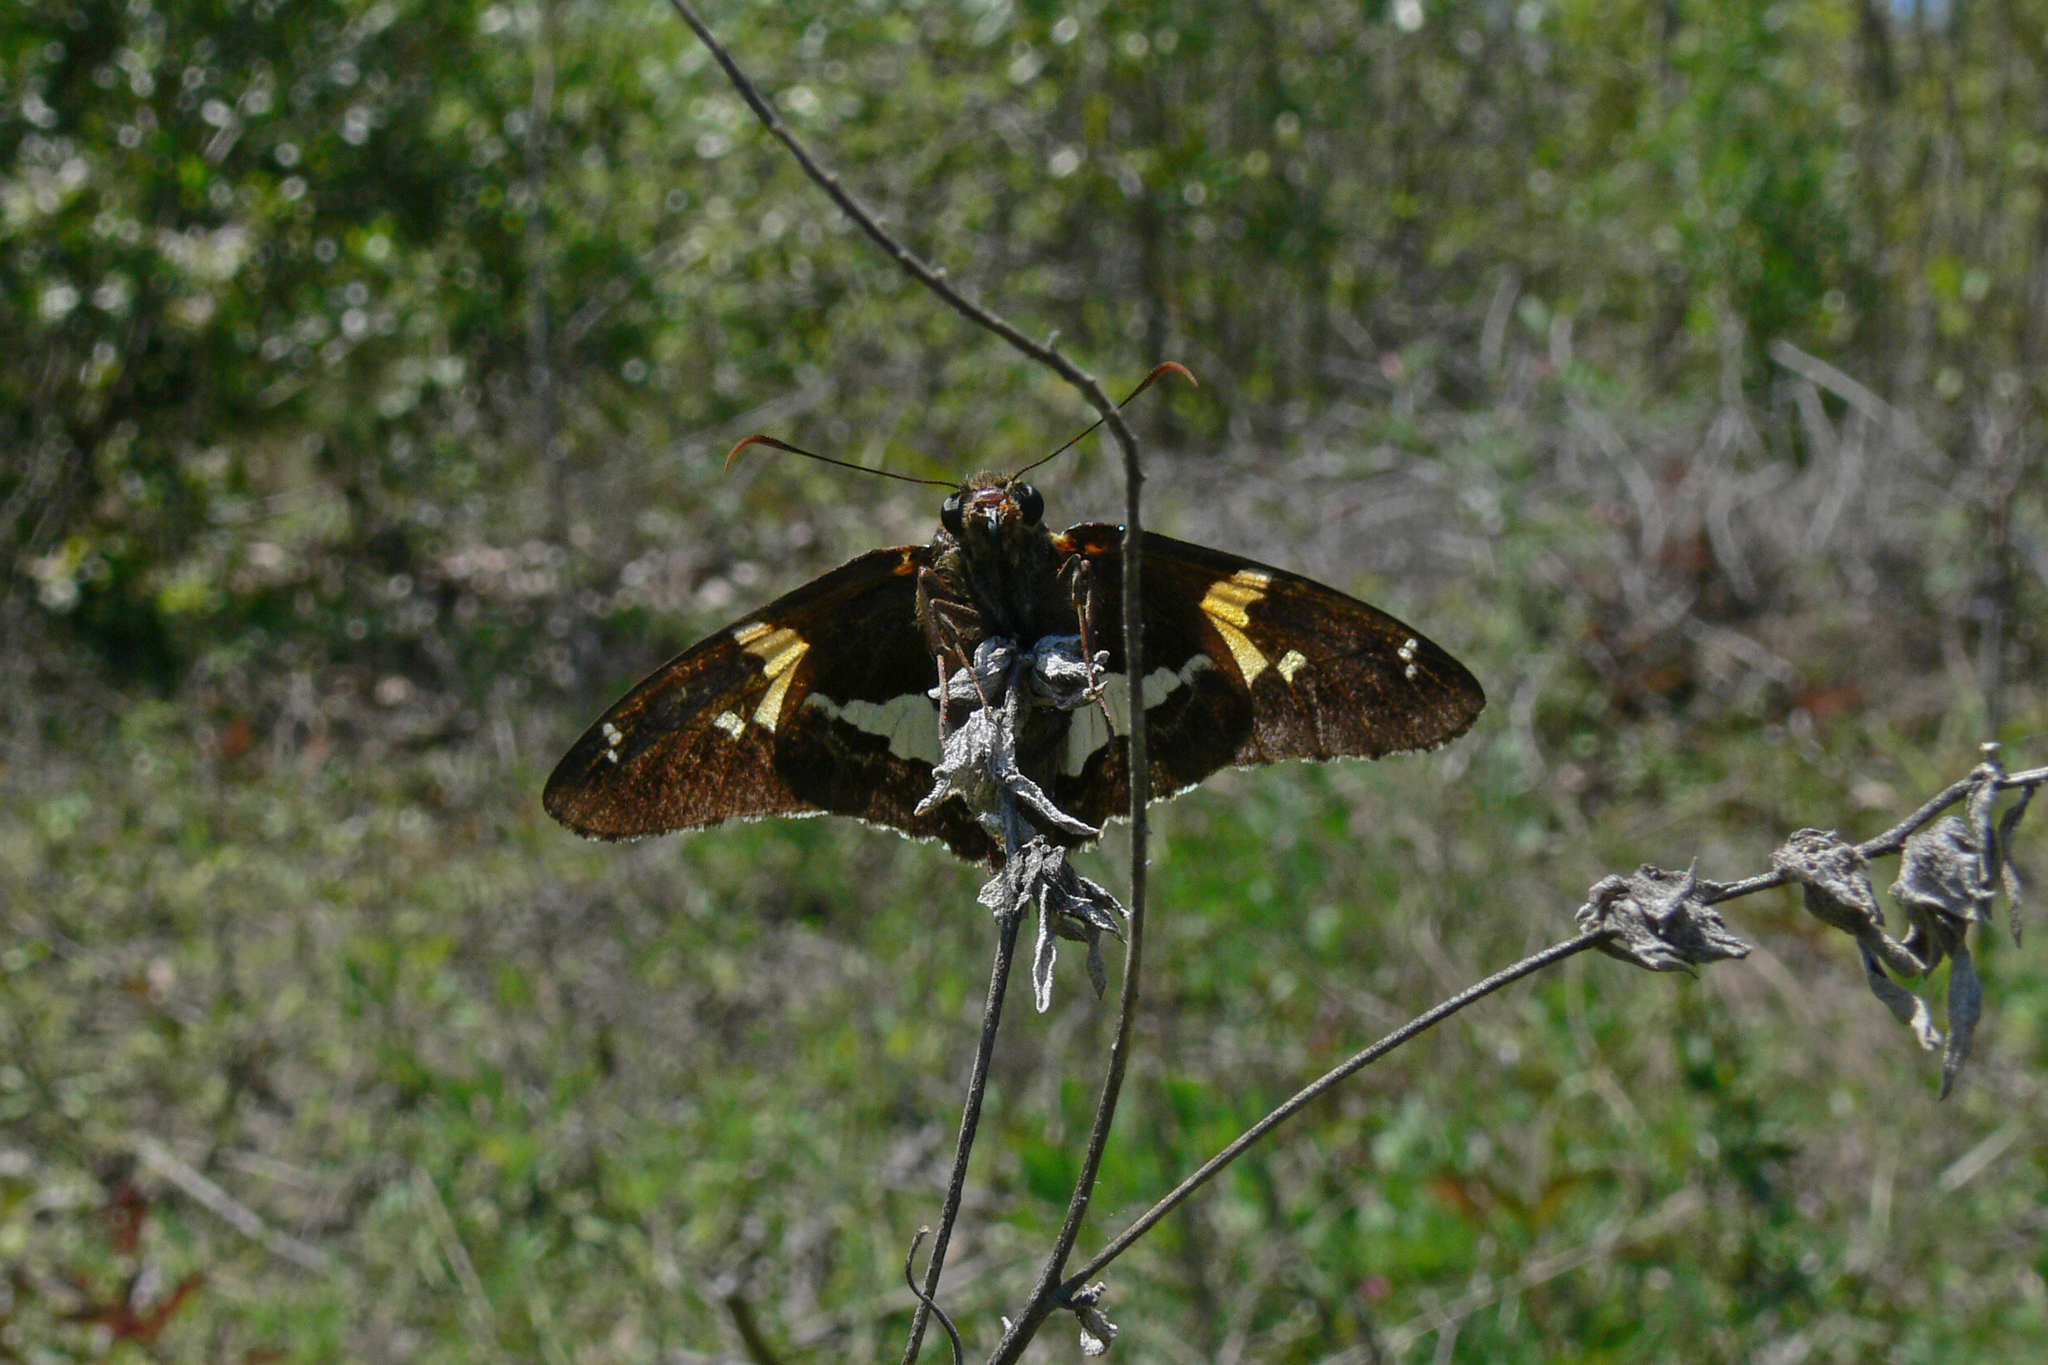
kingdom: Animalia
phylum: Arthropoda
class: Insecta
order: Lepidoptera
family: Hesperiidae
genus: Epargyreus
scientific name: Epargyreus clarus
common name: Silver-spotted skipper
